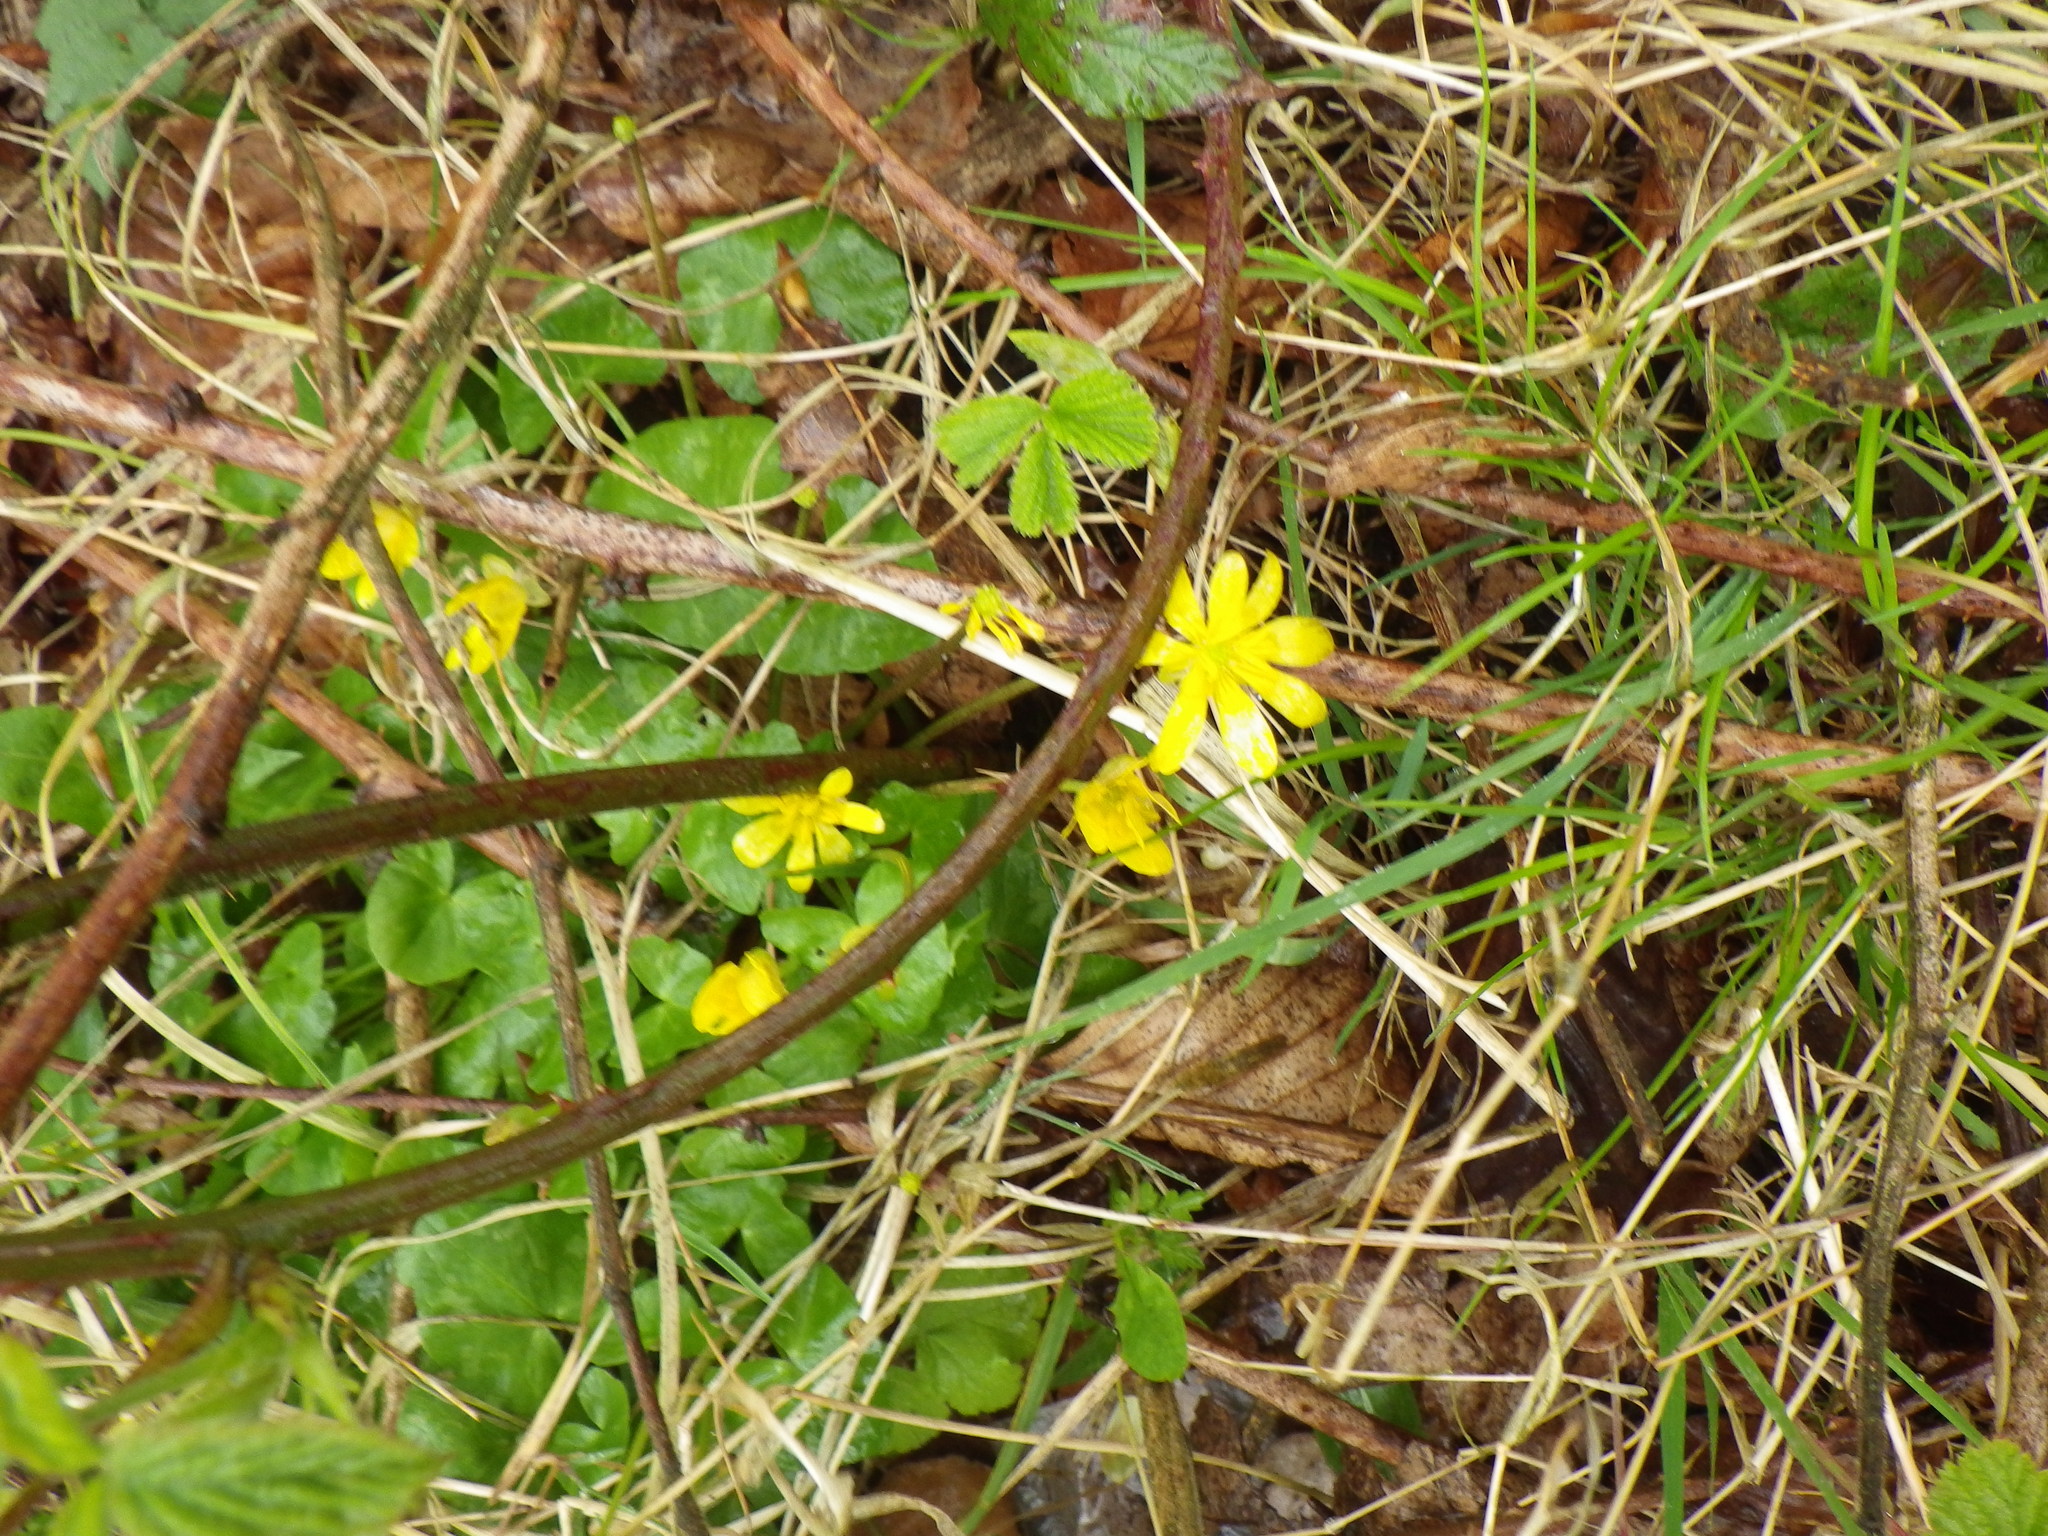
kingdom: Plantae
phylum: Tracheophyta
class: Magnoliopsida
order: Ranunculales
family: Ranunculaceae
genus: Ficaria
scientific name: Ficaria verna
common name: Lesser celandine
